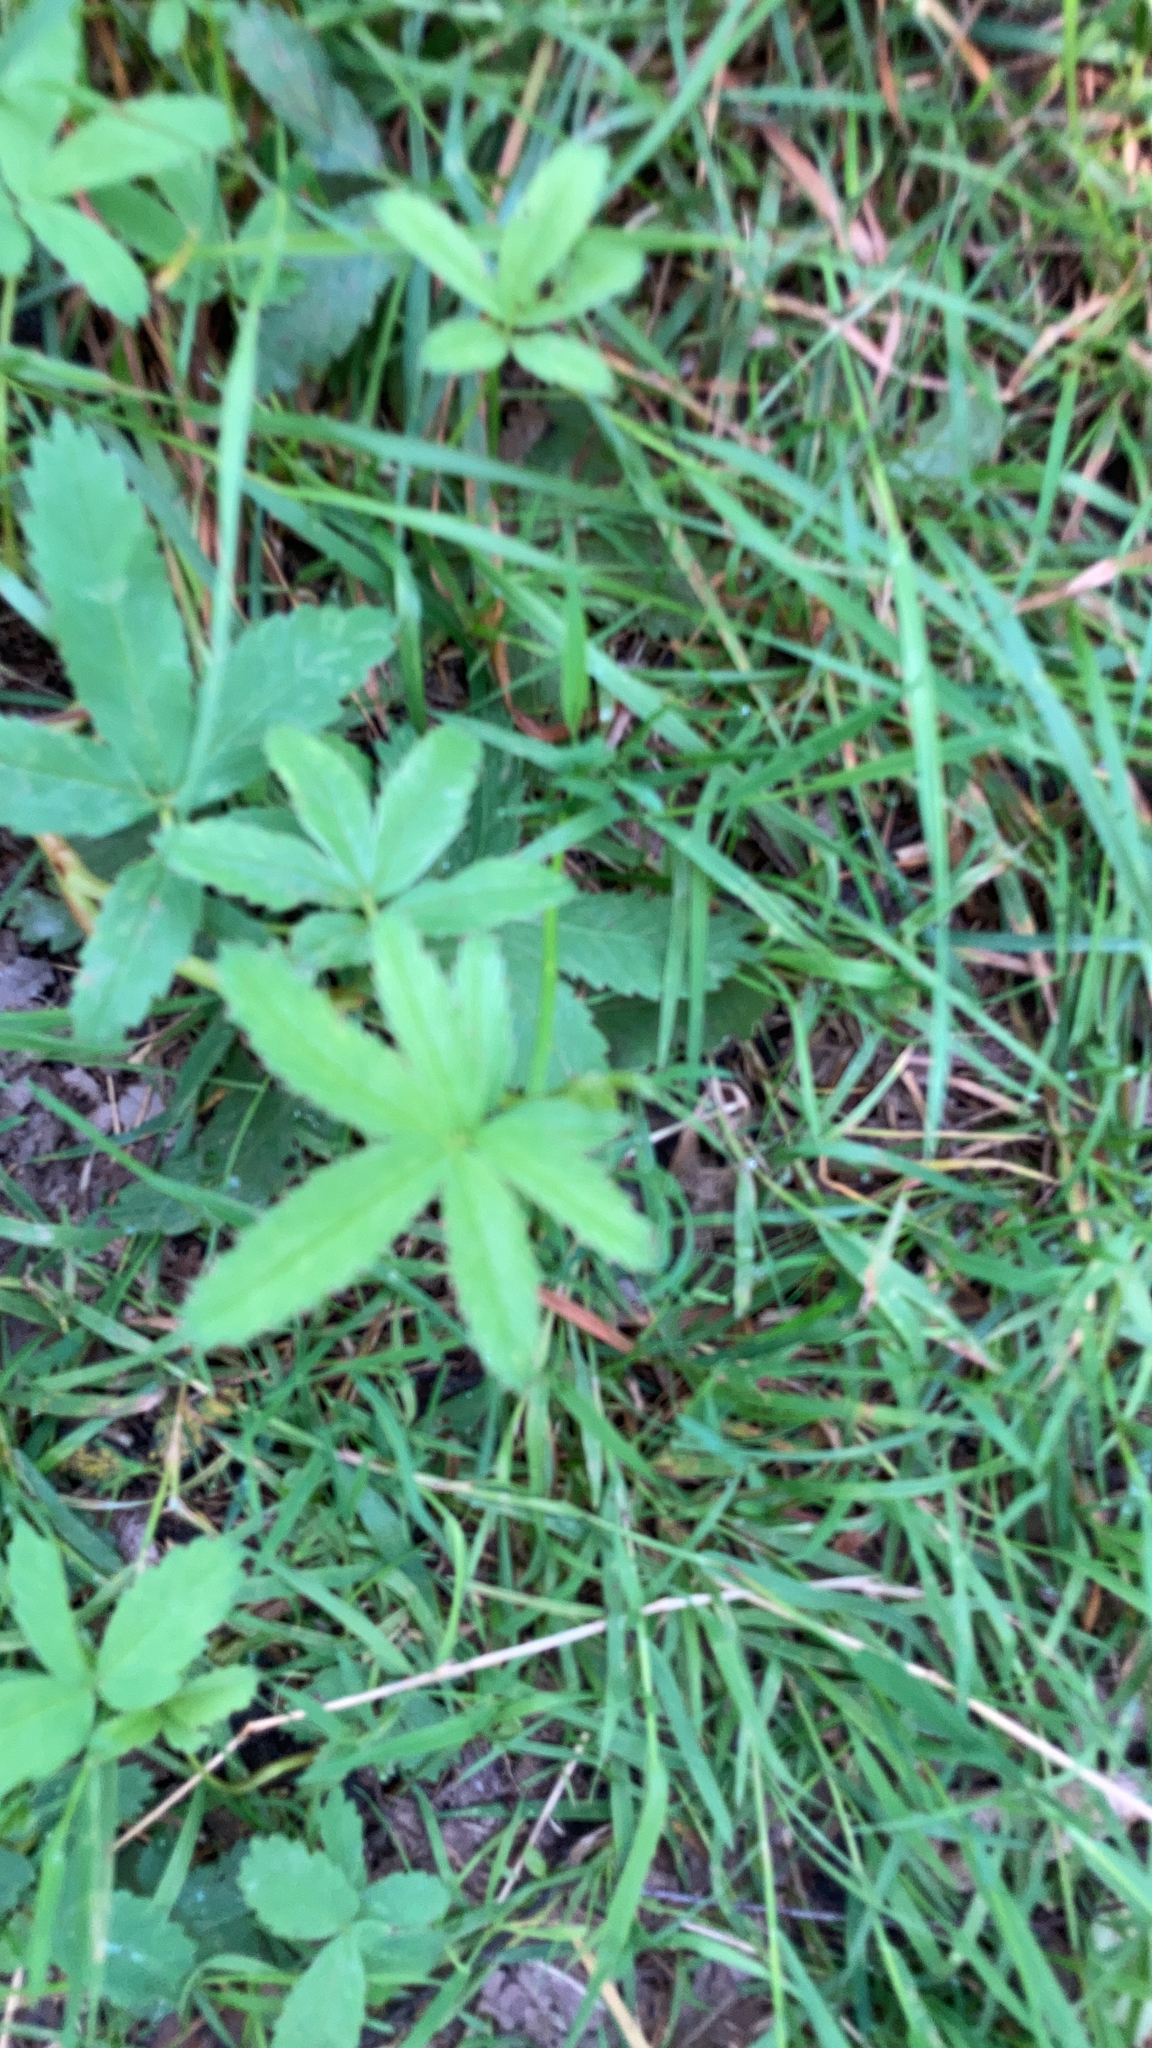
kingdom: Plantae
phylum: Tracheophyta
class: Magnoliopsida
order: Rosales
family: Rosaceae
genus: Comarum
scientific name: Comarum palustre
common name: Marsh cinquefoil
